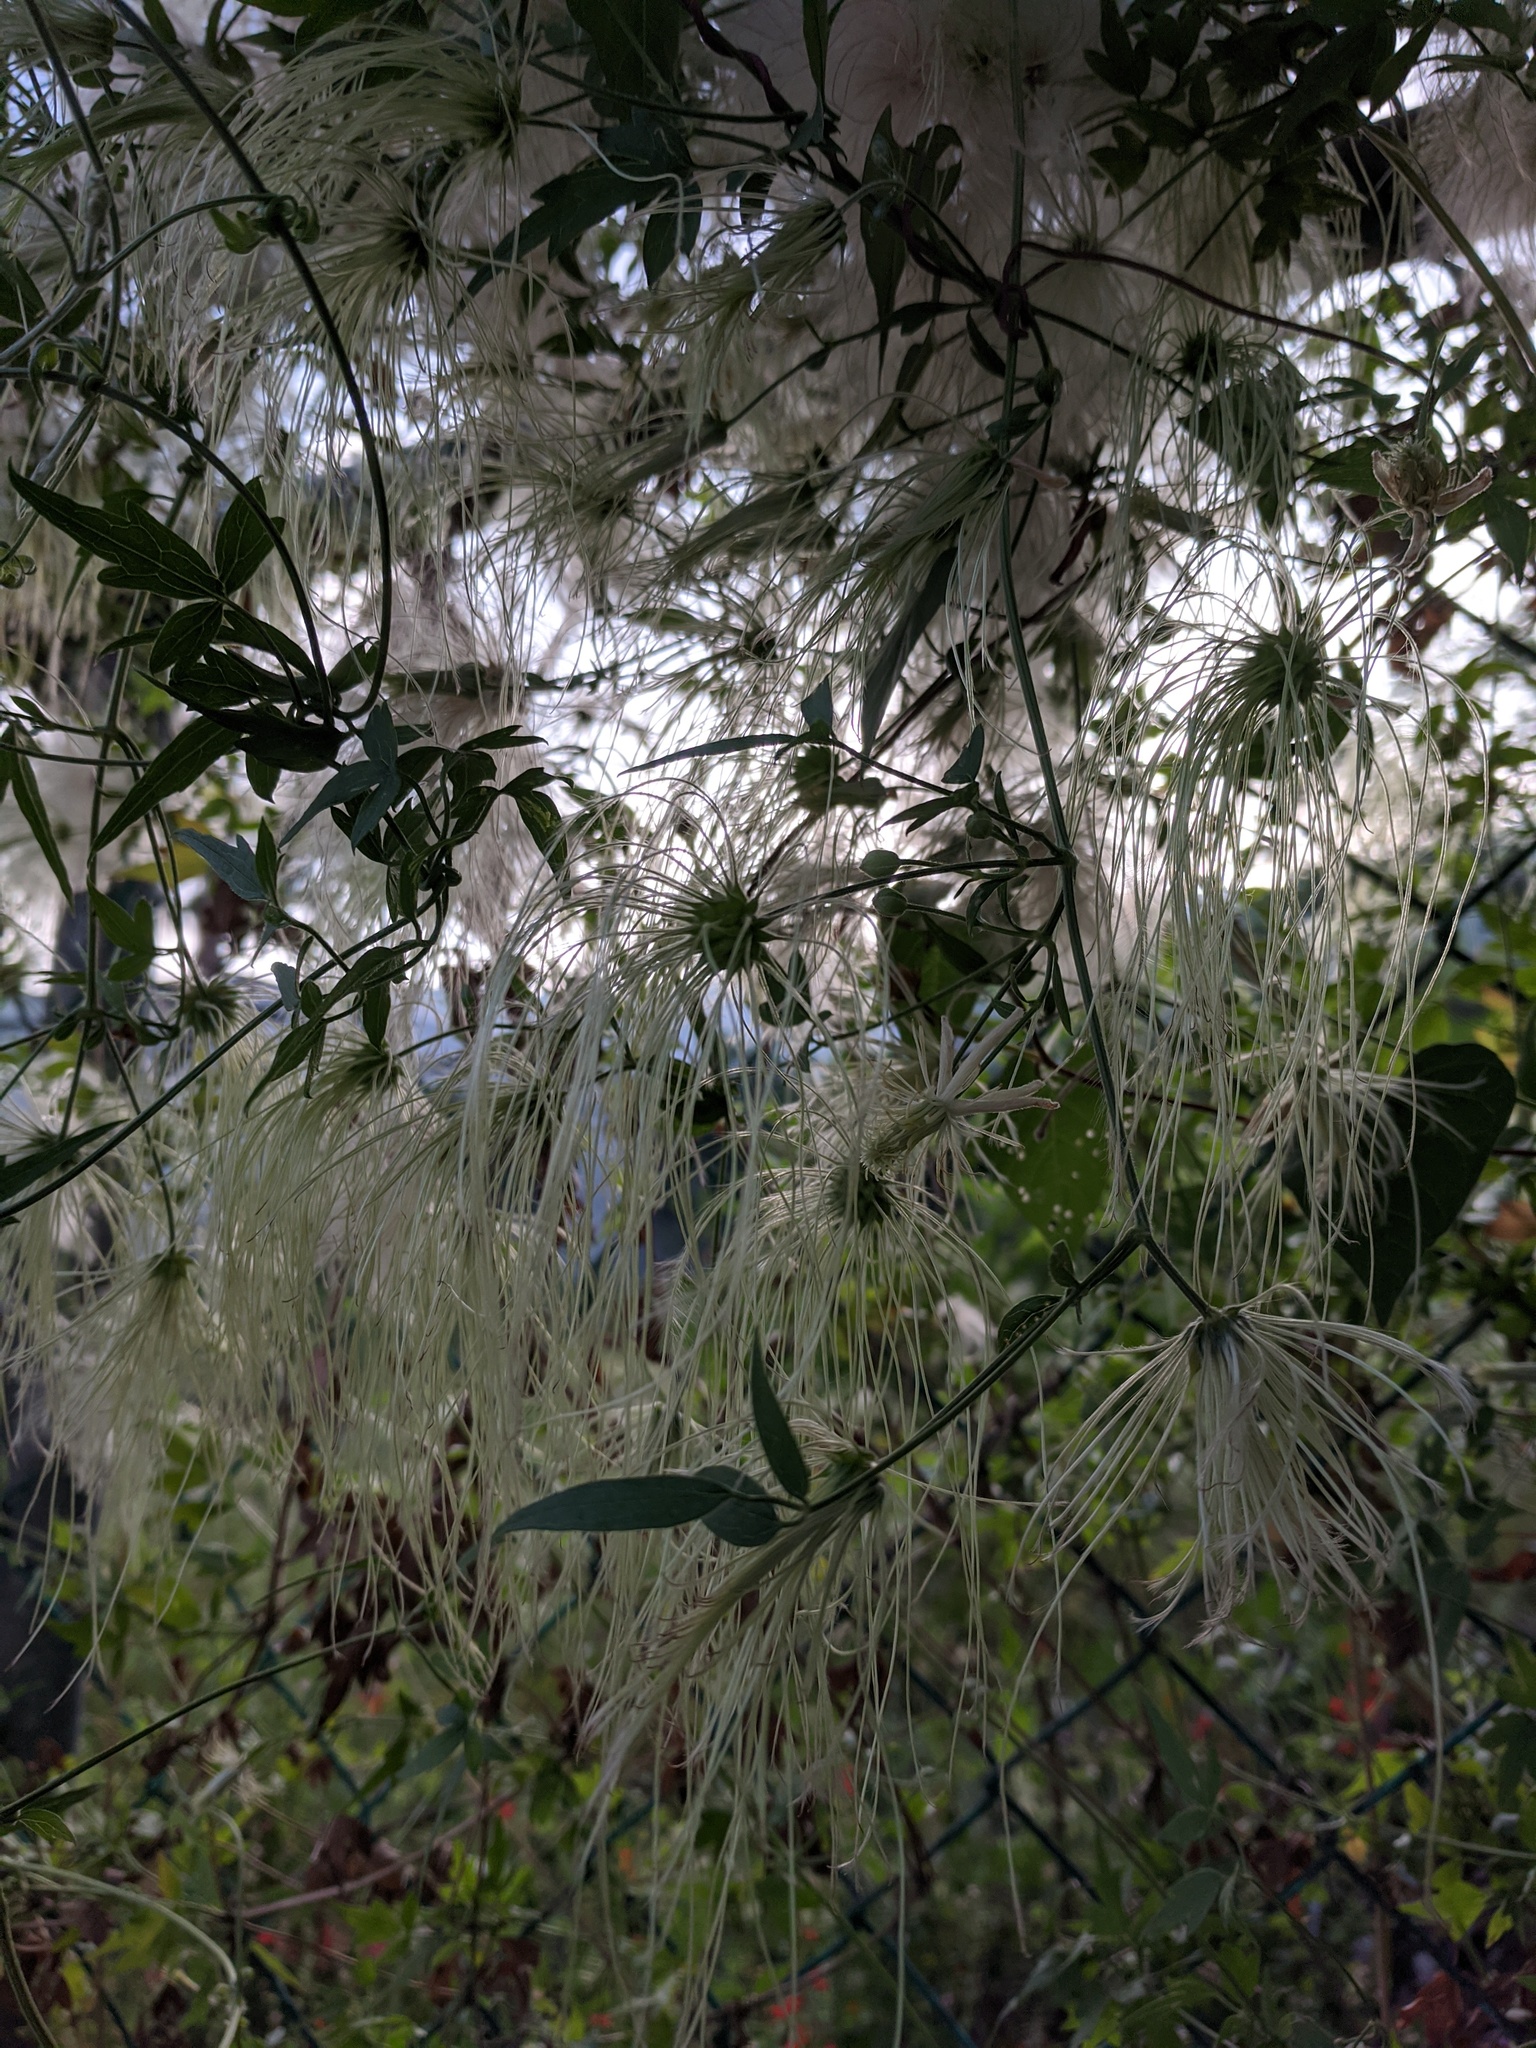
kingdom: Plantae
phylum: Tracheophyta
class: Magnoliopsida
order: Ranunculales
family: Ranunculaceae
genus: Clematis
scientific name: Clematis drummondii
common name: Texas virgin's bower
